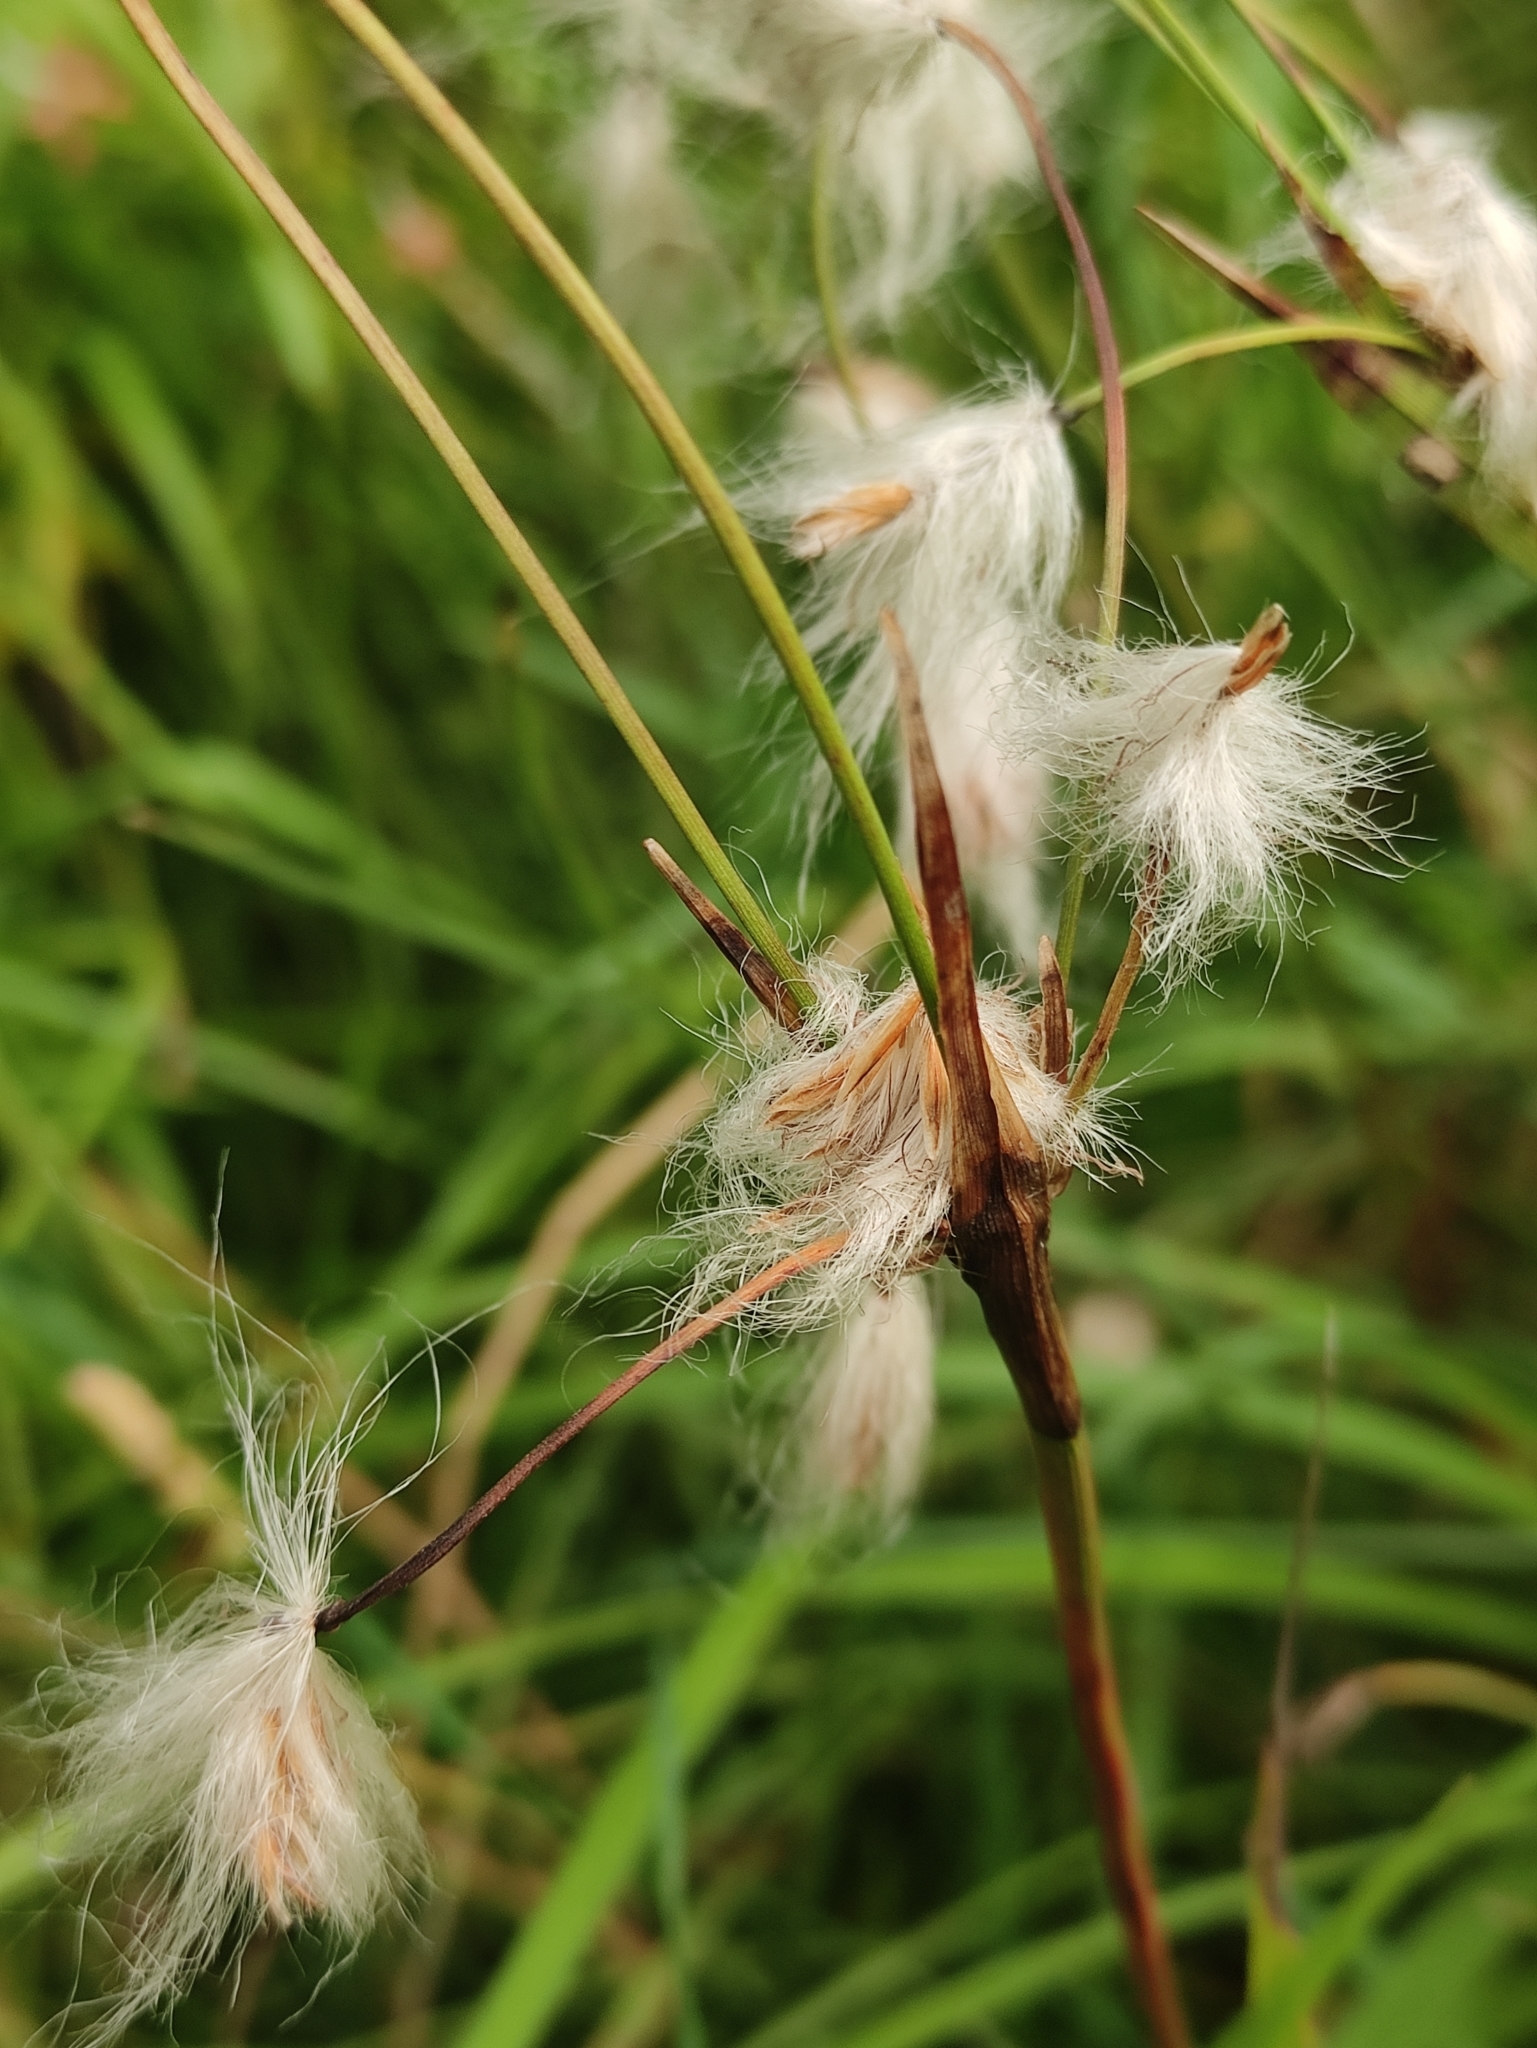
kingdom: Plantae
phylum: Tracheophyta
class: Liliopsida
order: Poales
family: Cyperaceae
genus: Eriophorum
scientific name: Eriophorum angustifolium
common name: Common cottongrass
